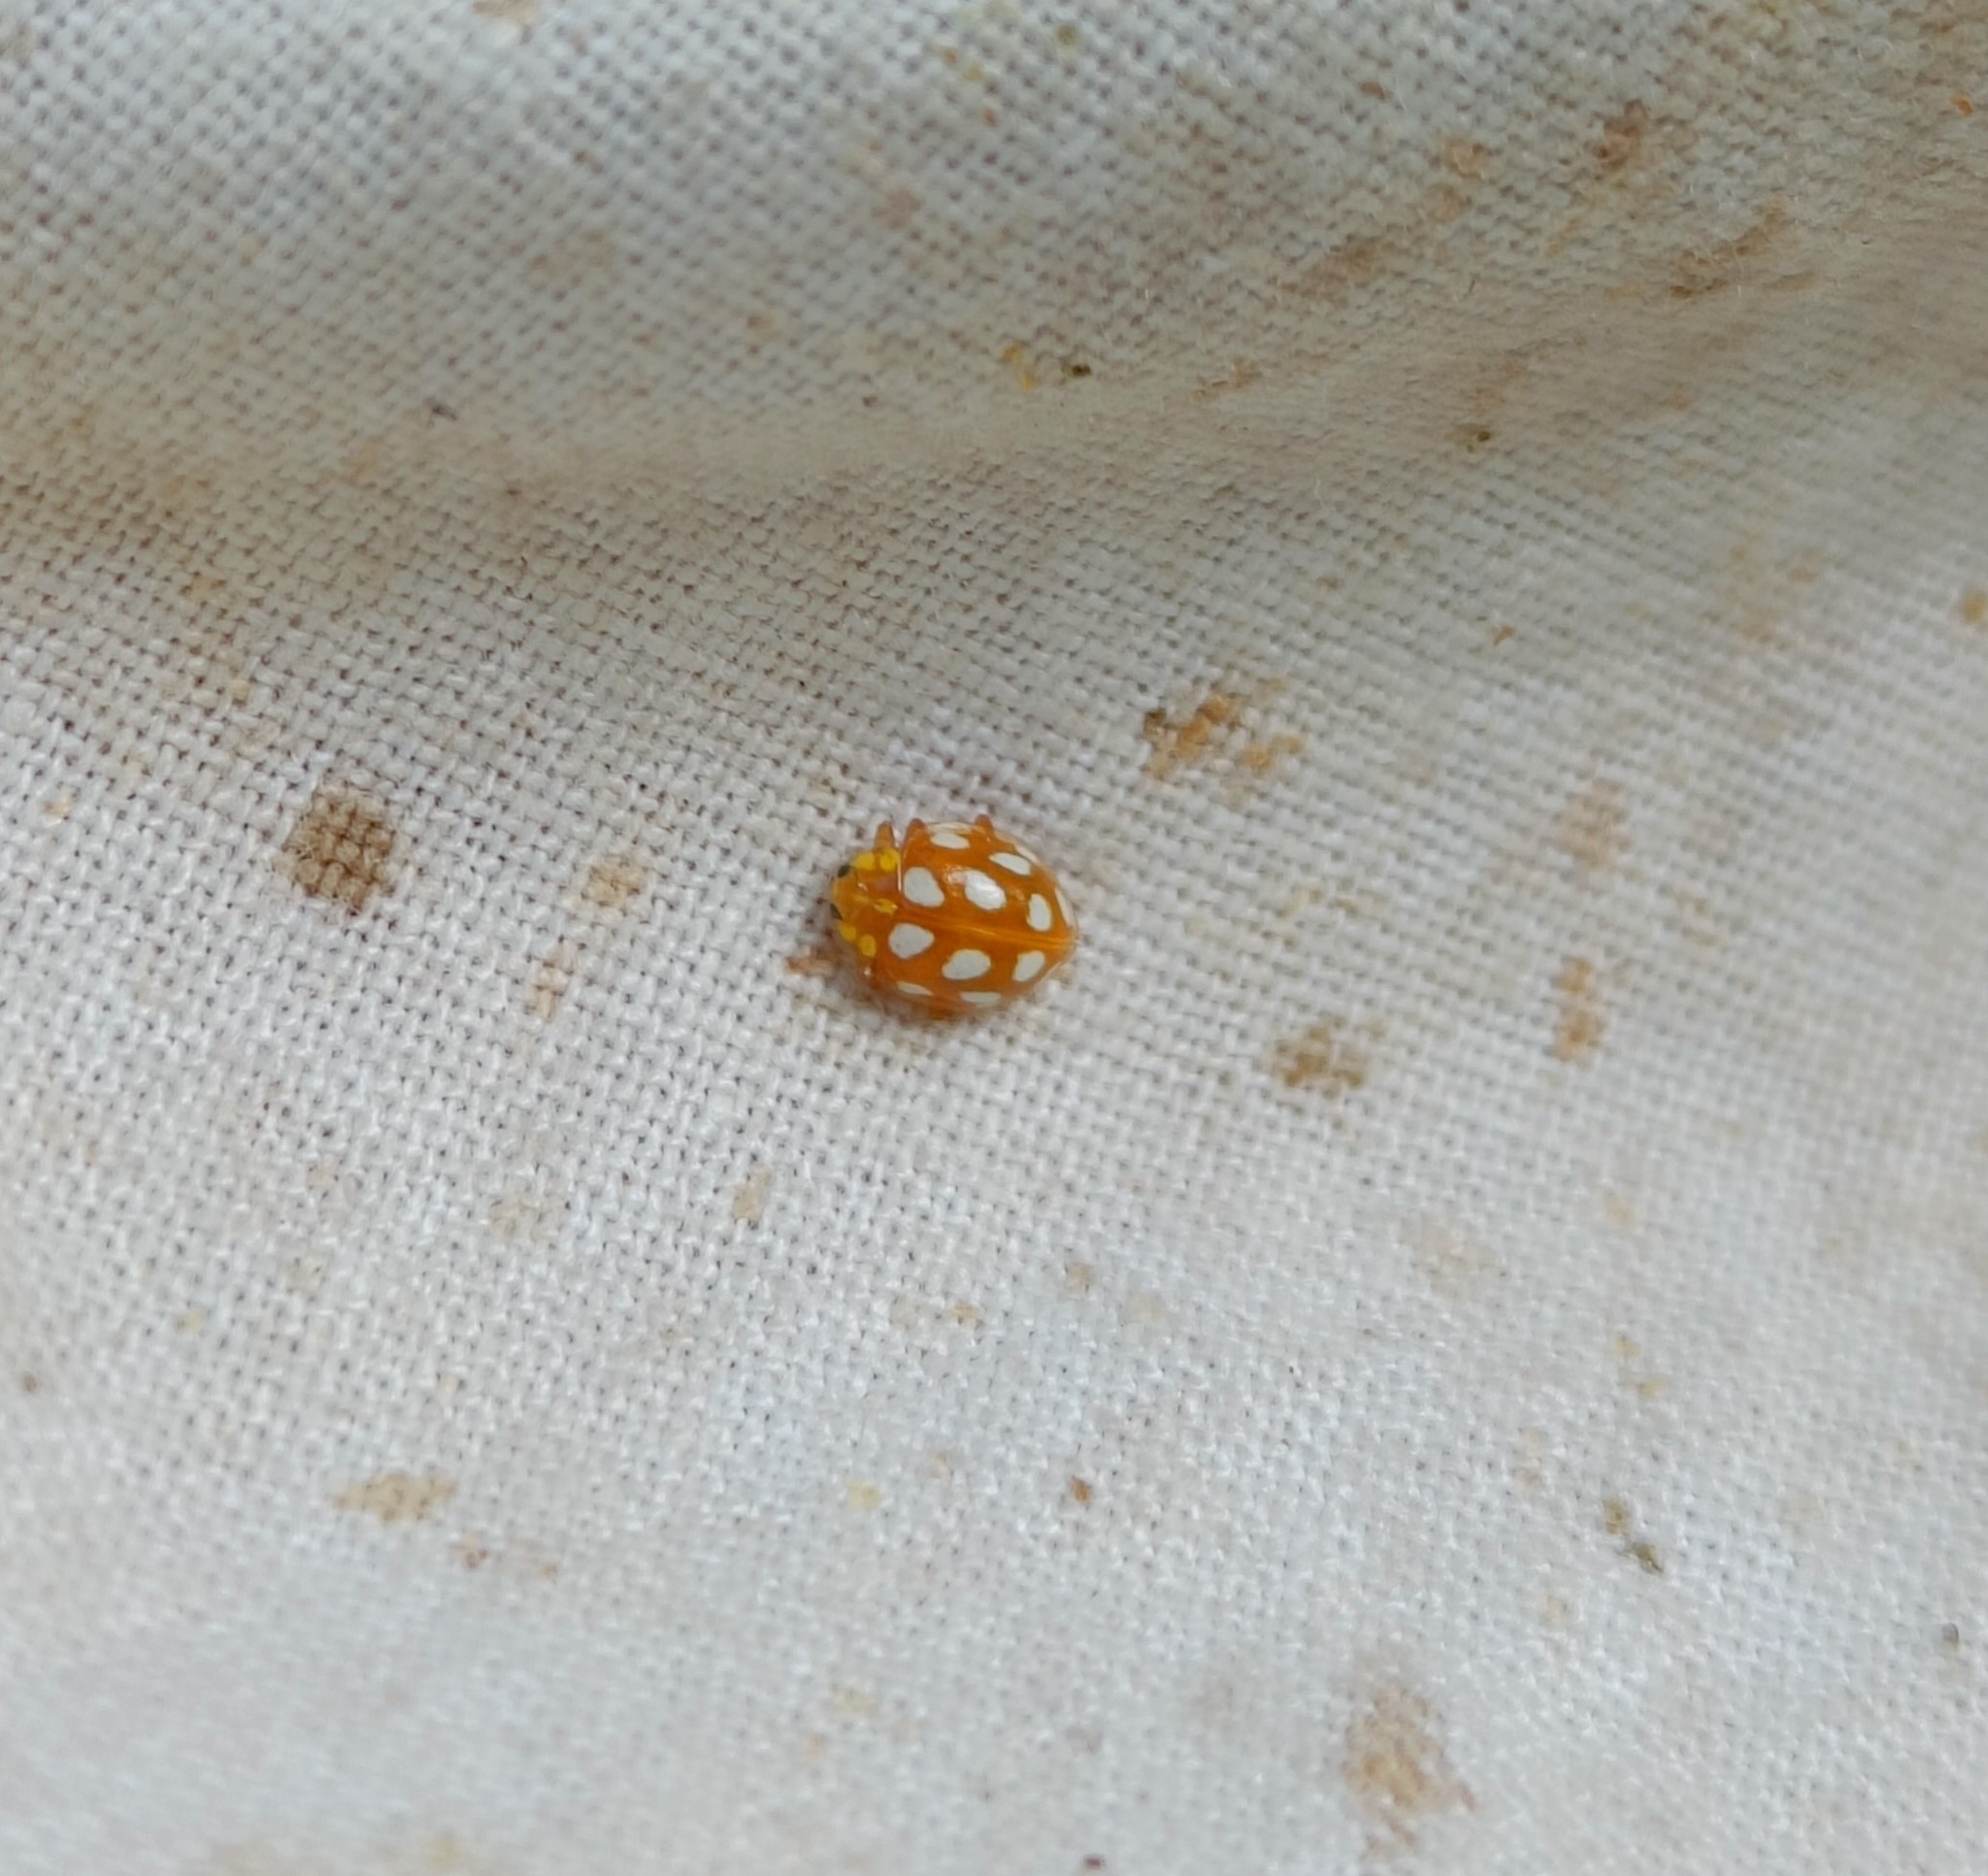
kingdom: Animalia
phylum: Arthropoda
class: Insecta
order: Coleoptera
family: Coccinellidae
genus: Halyzia
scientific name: Halyzia sedecimguttata
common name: Orange ladybird
